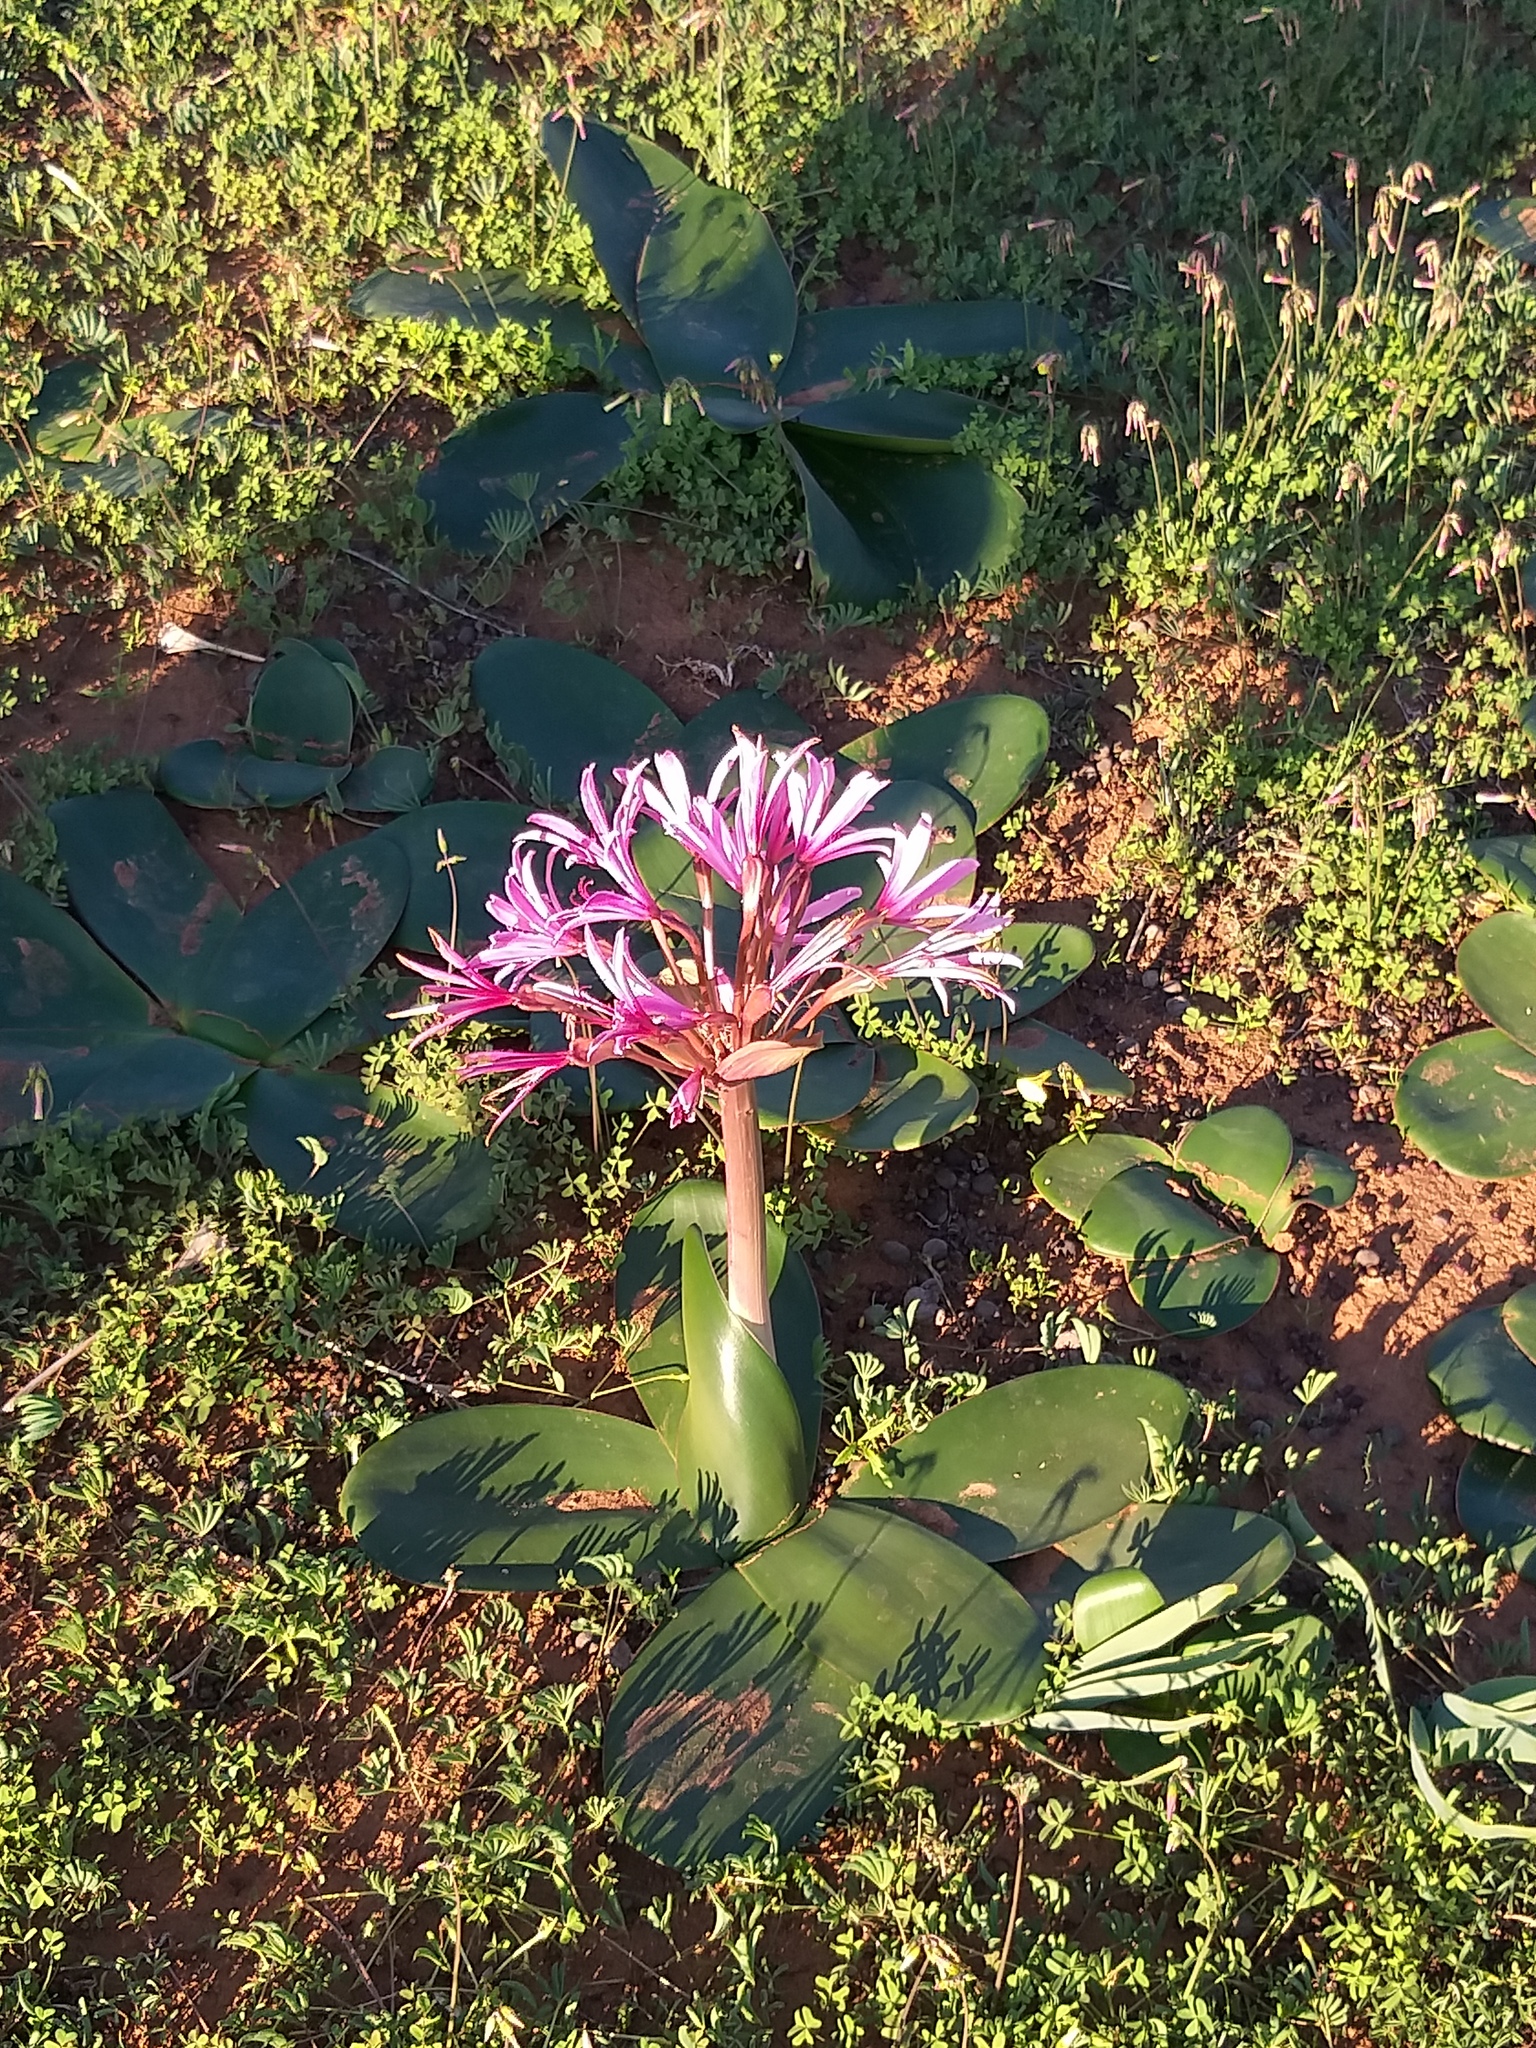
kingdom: Plantae
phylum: Tracheophyta
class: Liliopsida
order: Asparagales
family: Amaryllidaceae
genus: Brunsvigia
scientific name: Brunsvigia bosmaniae
